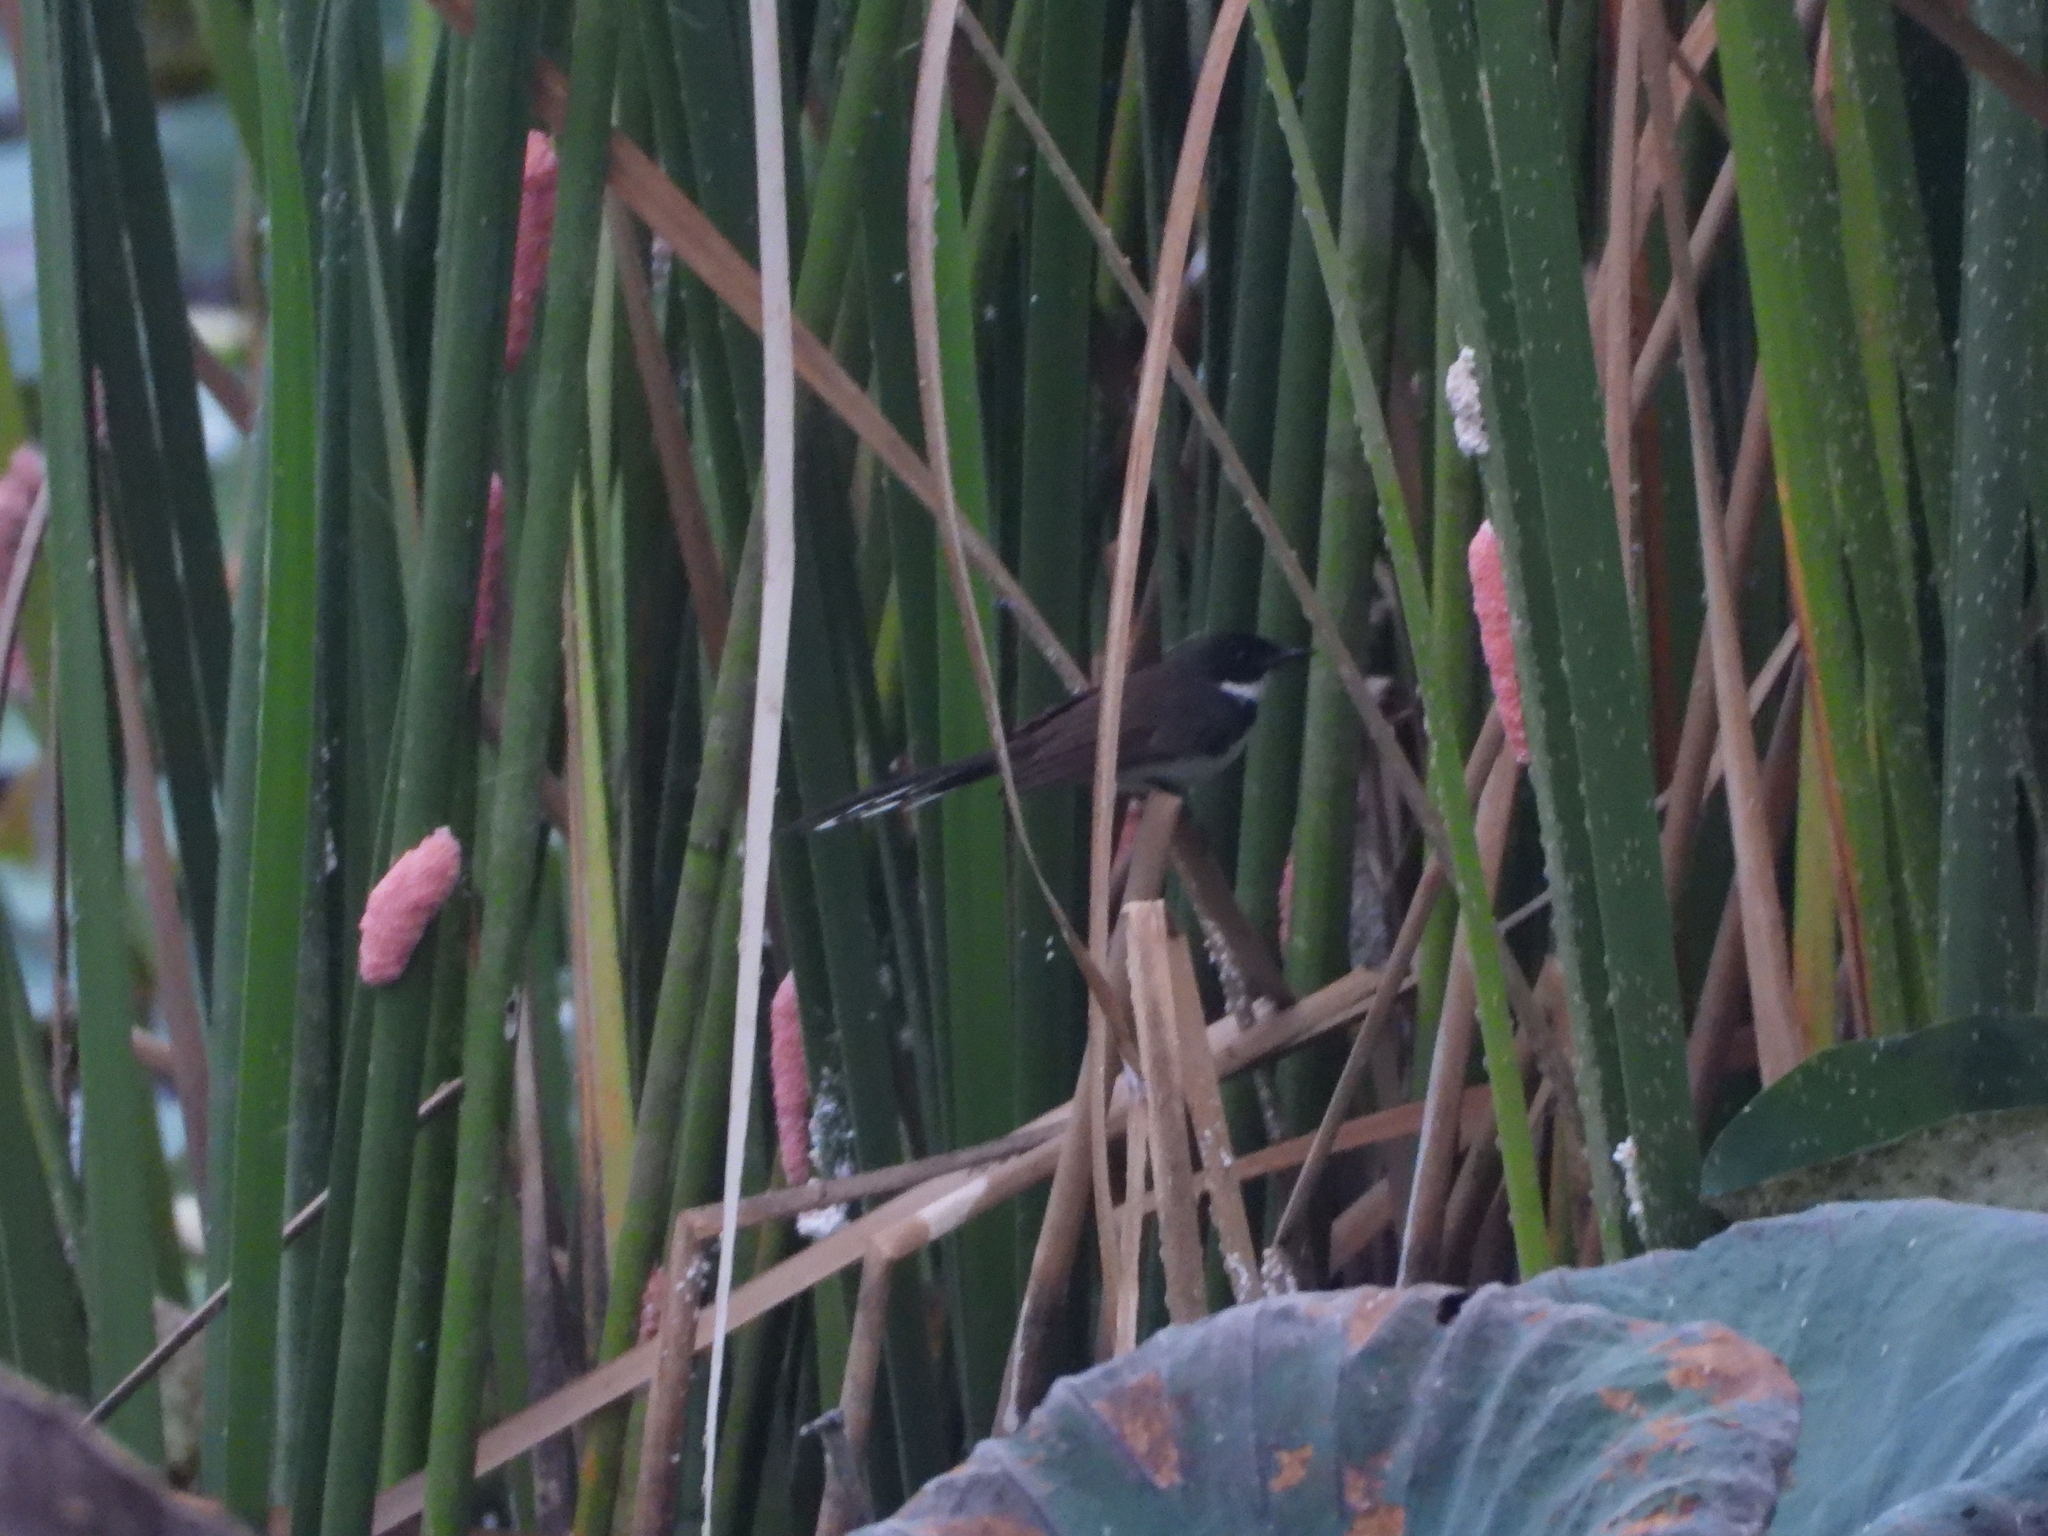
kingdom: Animalia
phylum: Chordata
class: Aves
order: Passeriformes
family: Rhipiduridae
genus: Rhipidura
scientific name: Rhipidura javanica
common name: Pied fantail
